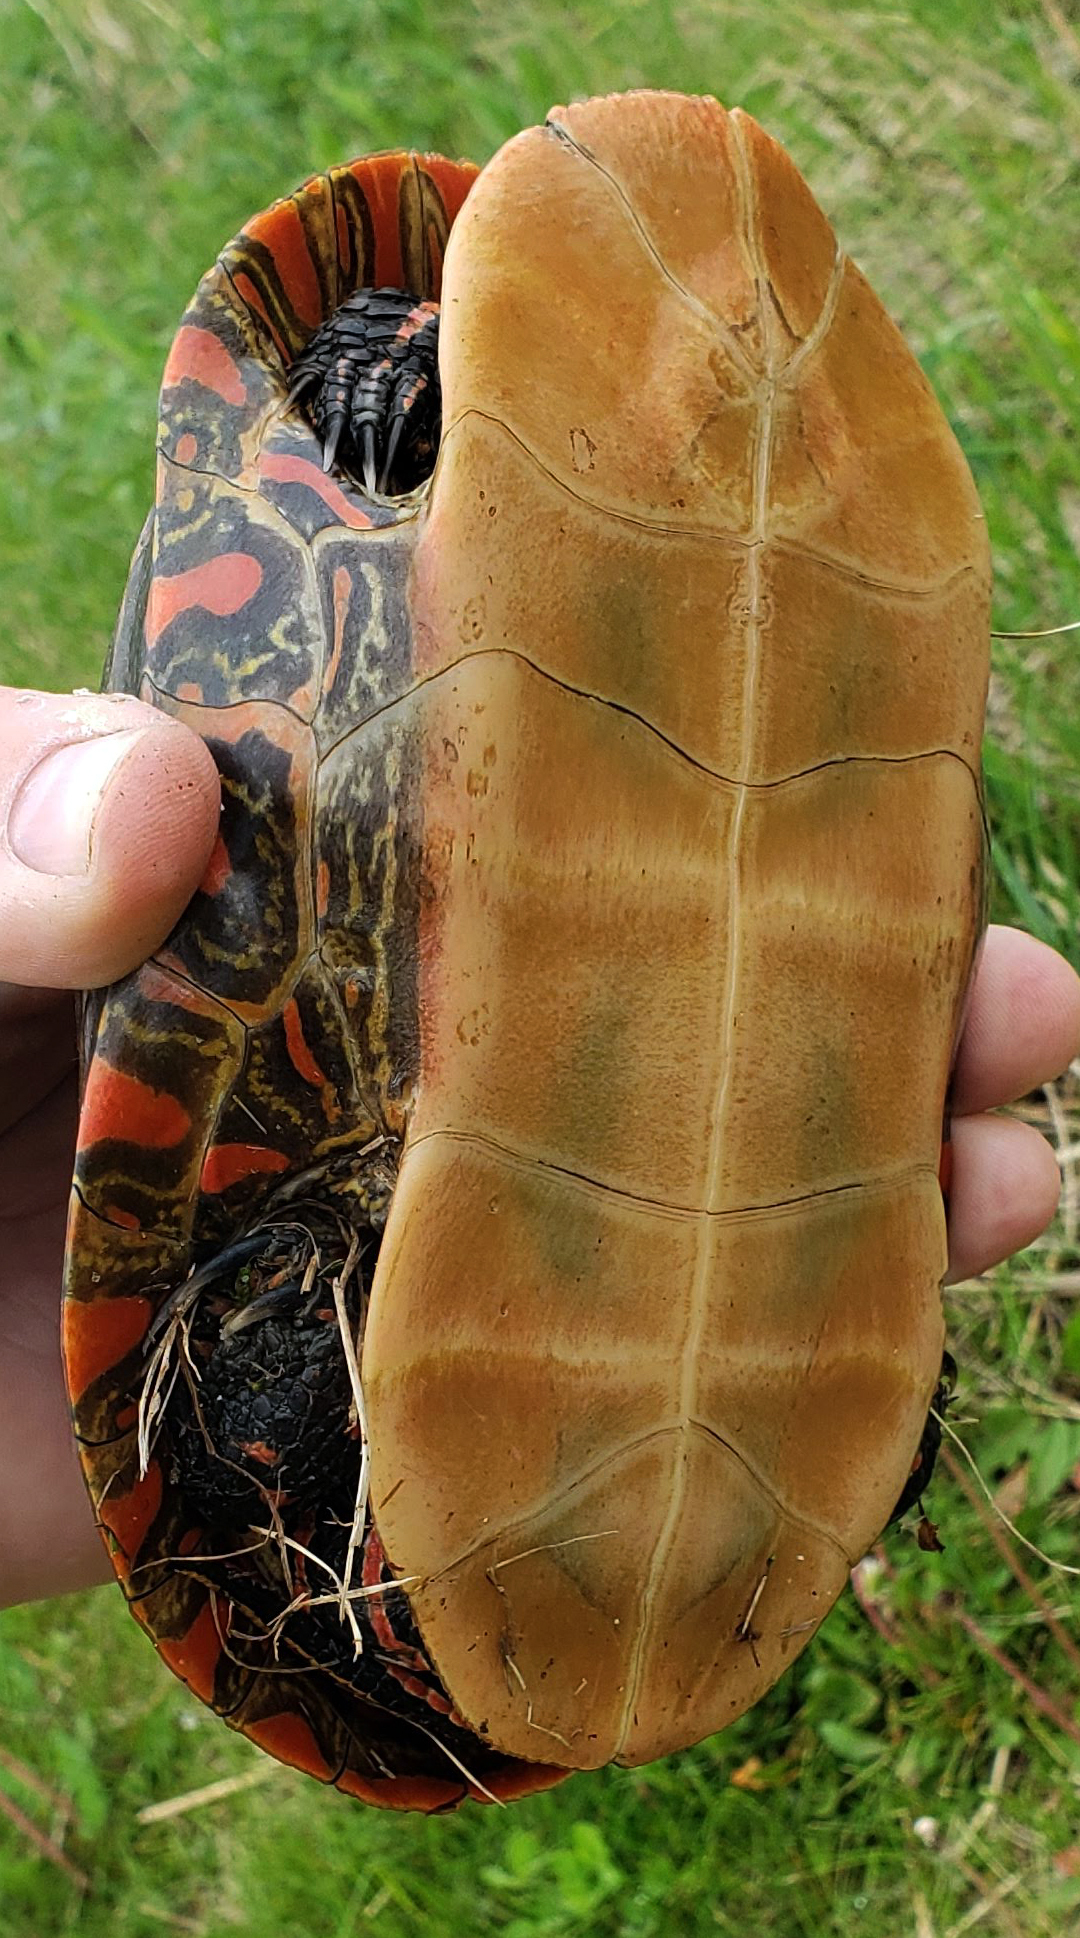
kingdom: Animalia
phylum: Chordata
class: Testudines
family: Emydidae
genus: Chrysemys
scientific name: Chrysemys picta
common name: Painted turtle
